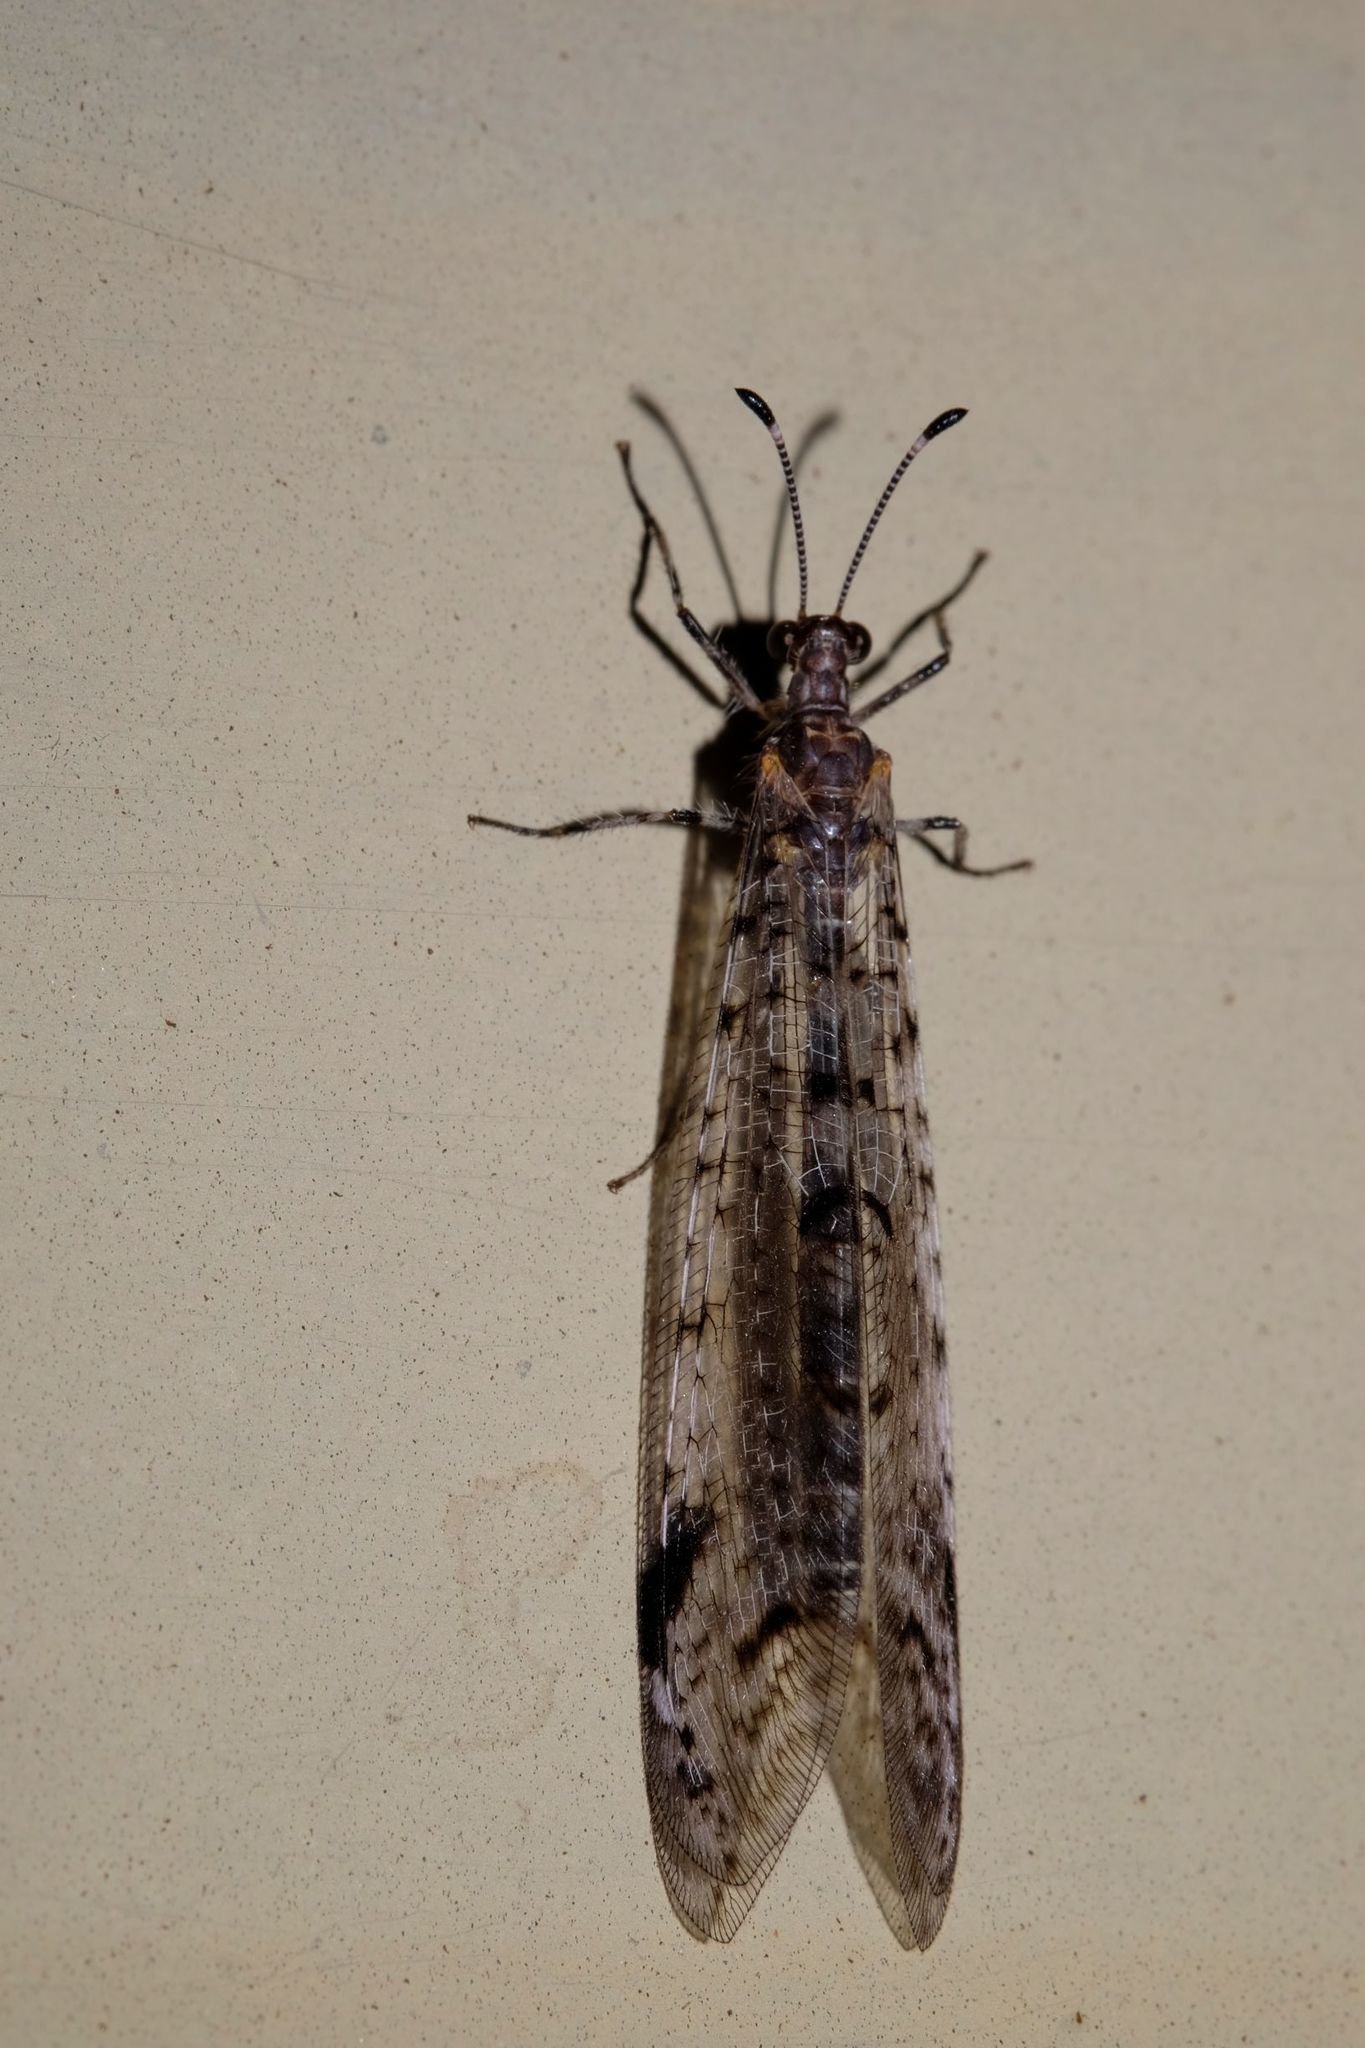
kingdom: Animalia
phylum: Arthropoda
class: Insecta
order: Neuroptera
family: Myrmeleontidae
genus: Dendroleon
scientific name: Dendroleon longipennis
